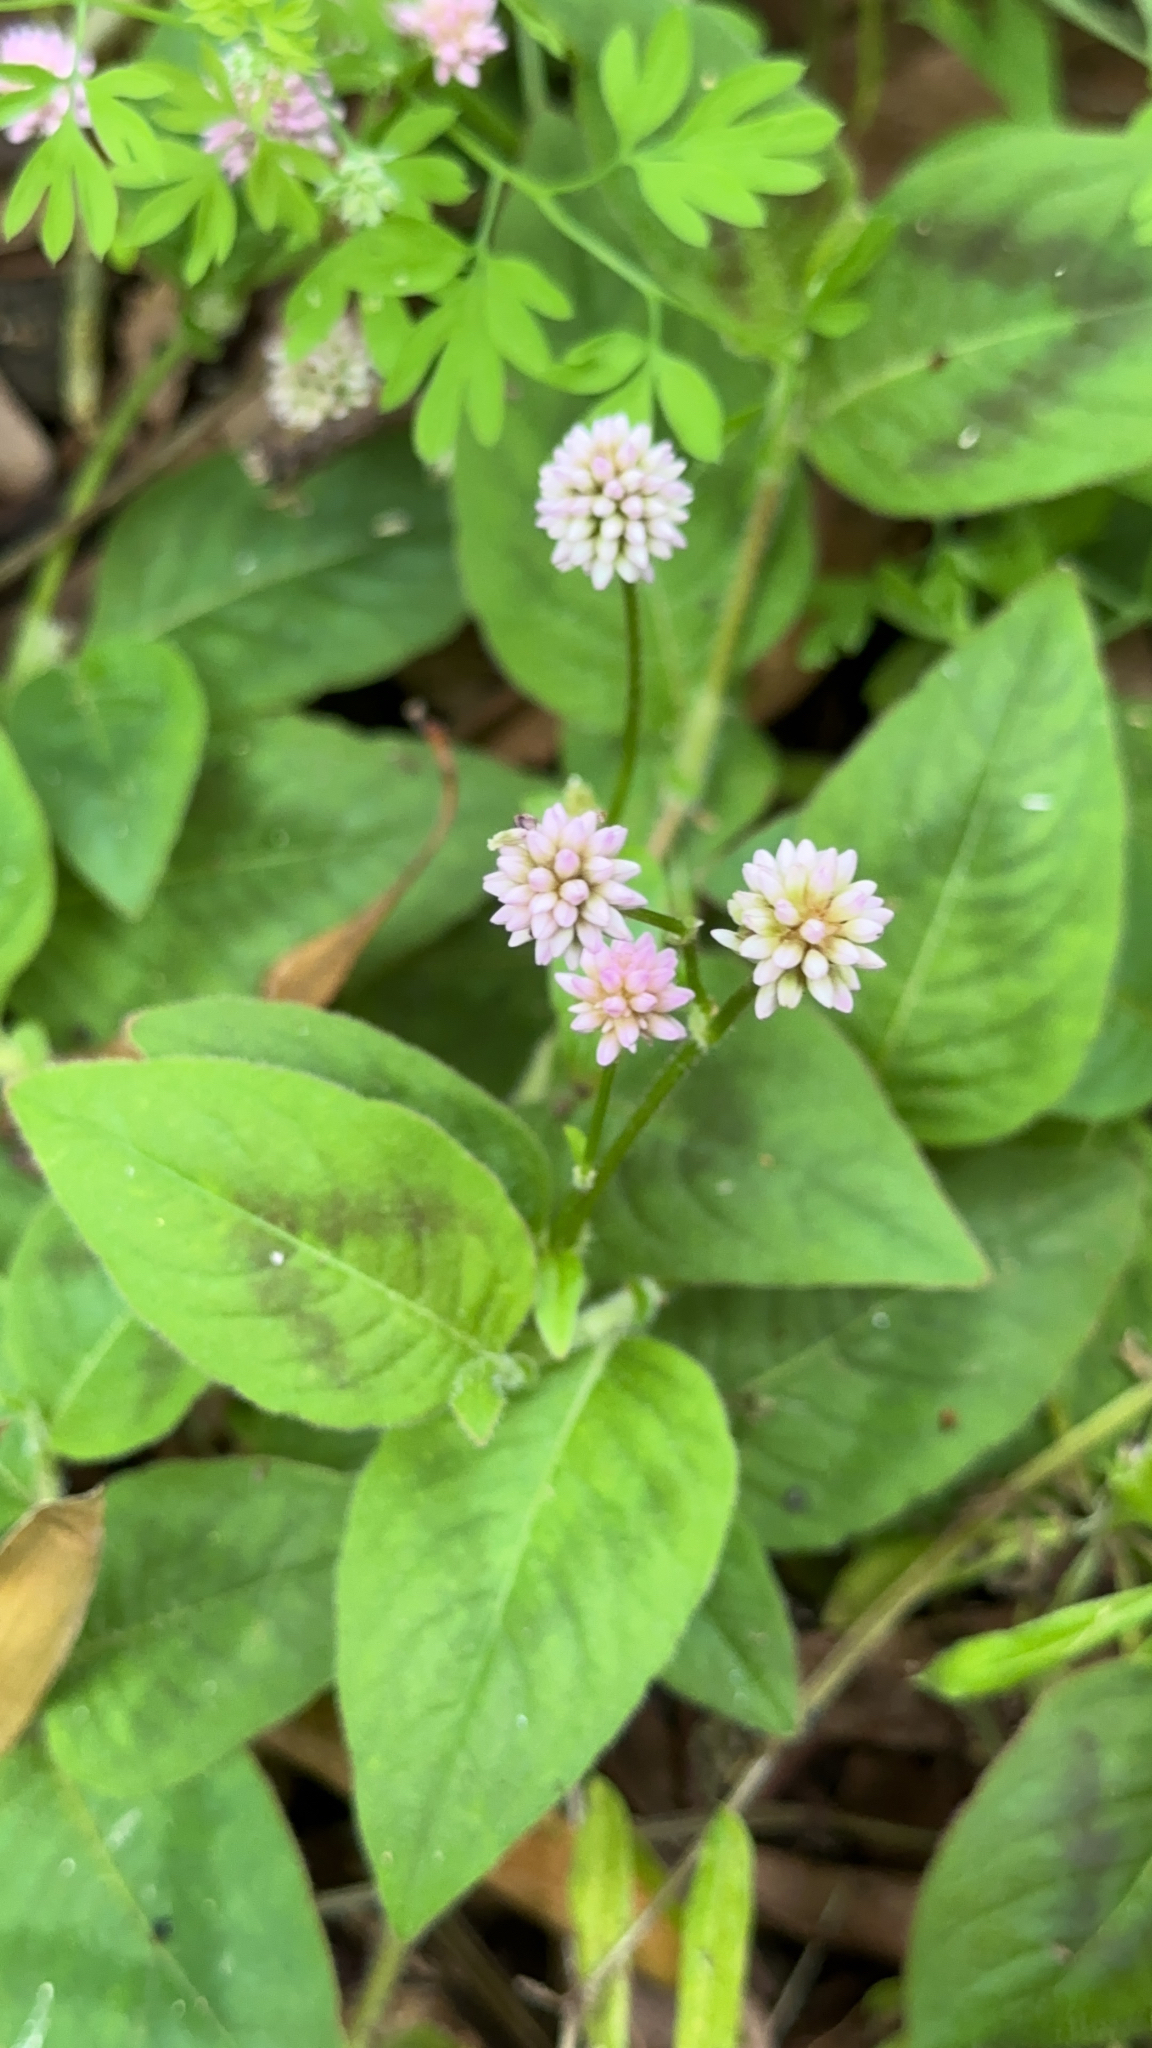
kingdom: Plantae
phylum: Tracheophyta
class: Magnoliopsida
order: Caryophyllales
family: Polygonaceae
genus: Persicaria
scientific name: Persicaria capitata
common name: Pinkhead smartweed
